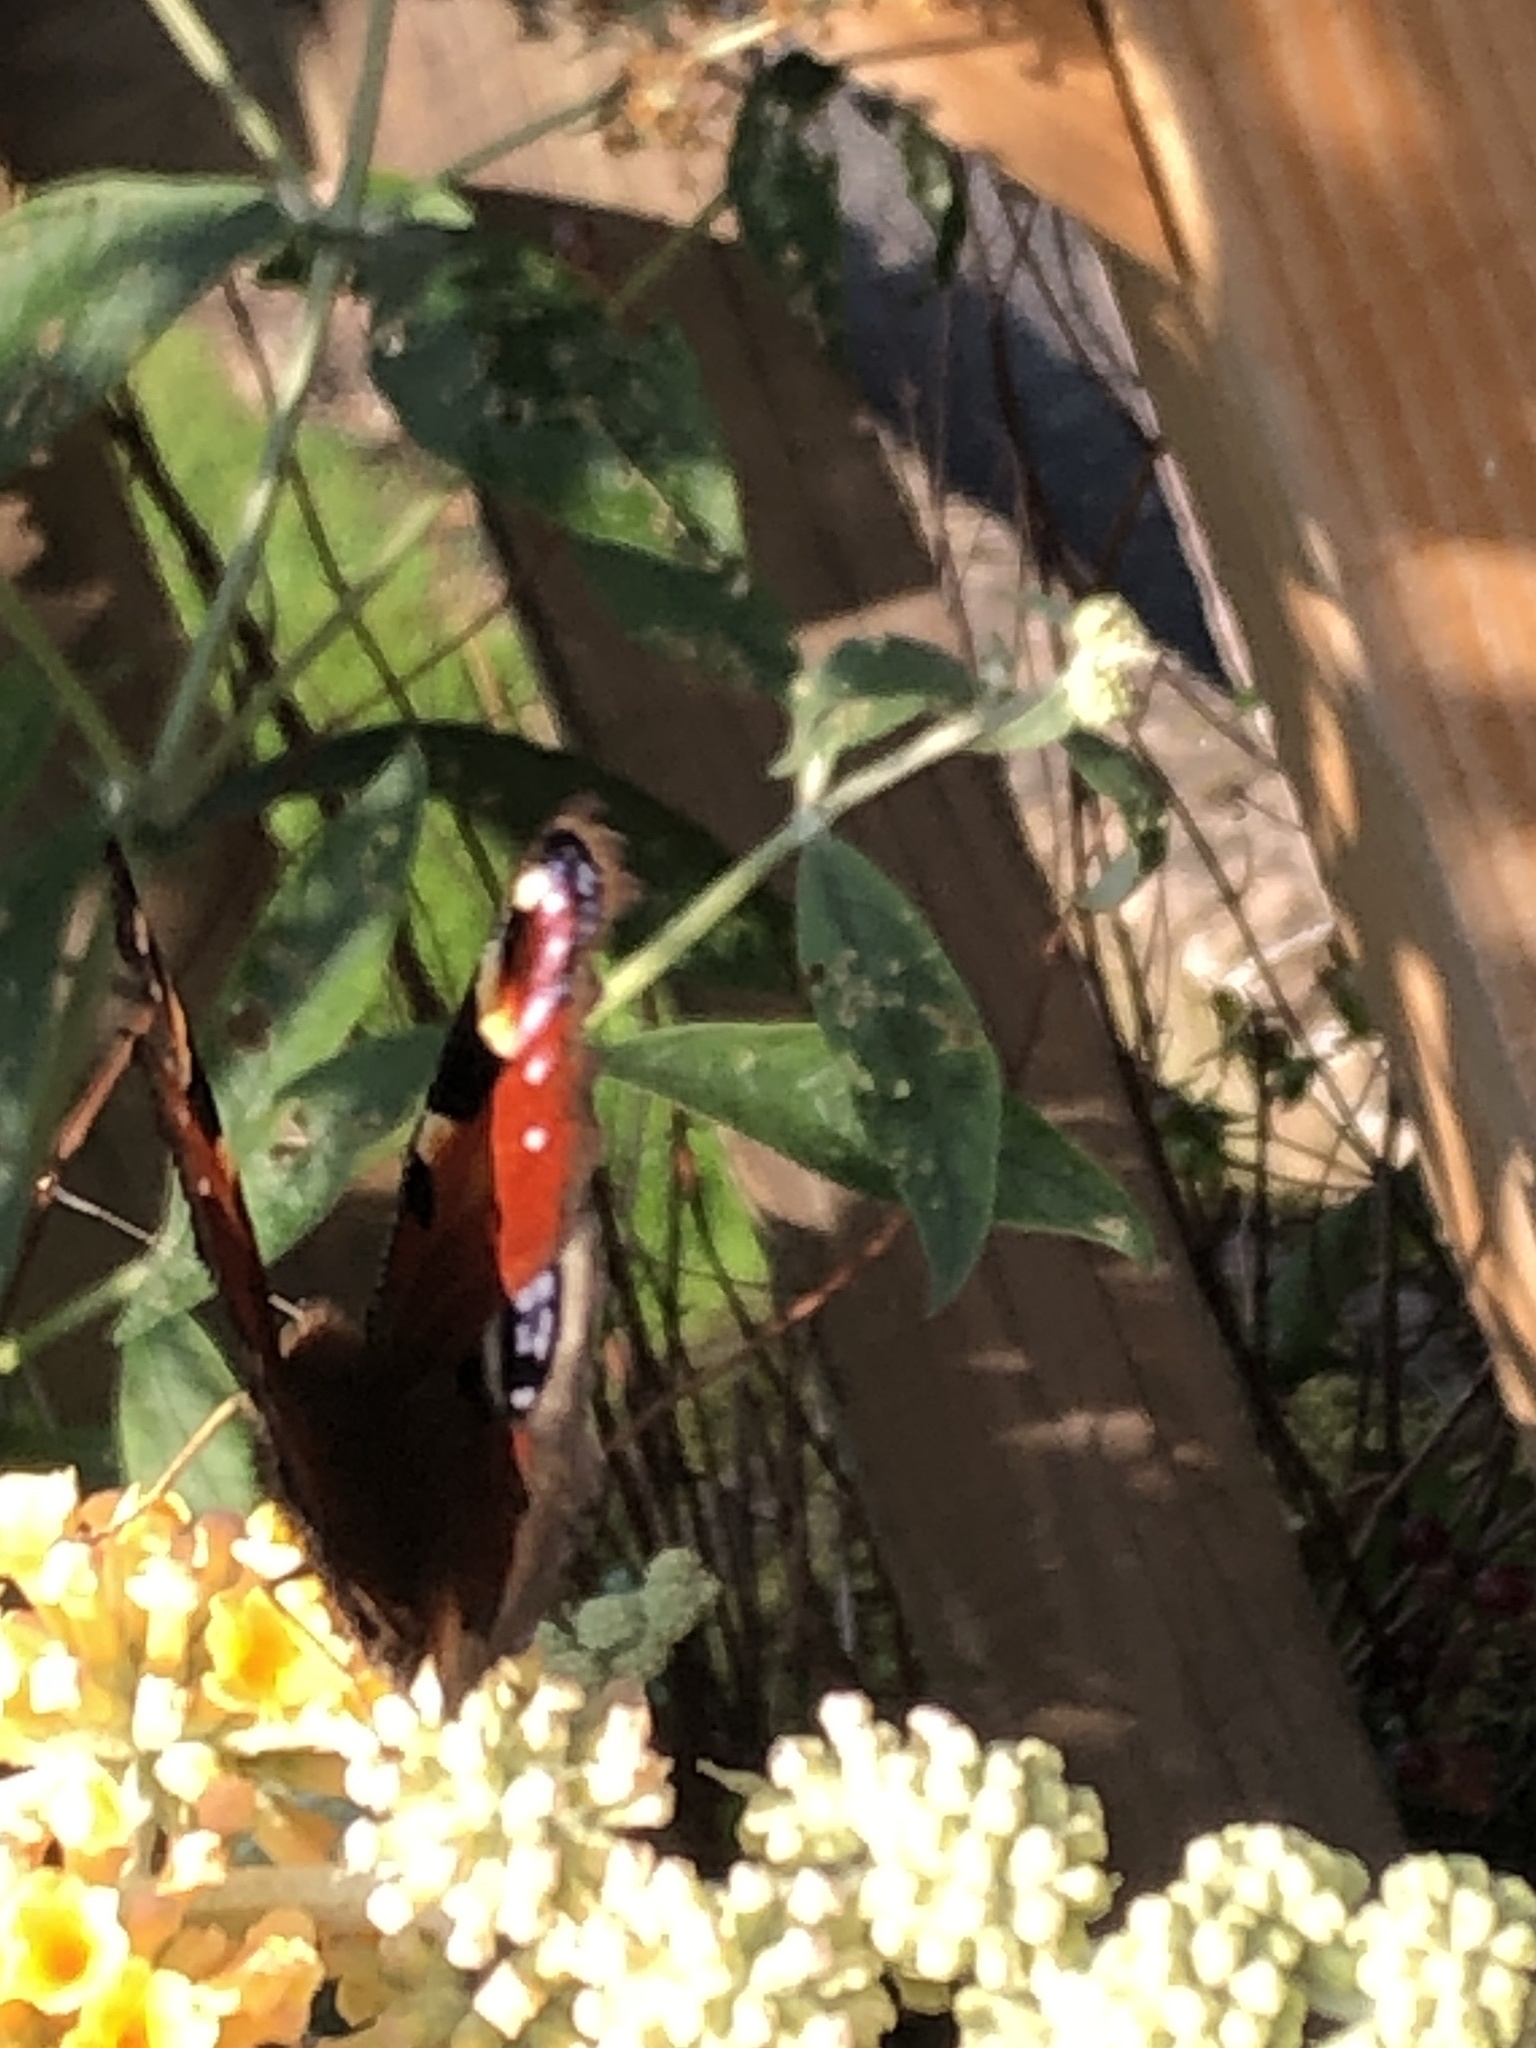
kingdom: Animalia
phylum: Arthropoda
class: Insecta
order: Lepidoptera
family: Nymphalidae
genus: Aglais
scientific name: Aglais io
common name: Peacock
